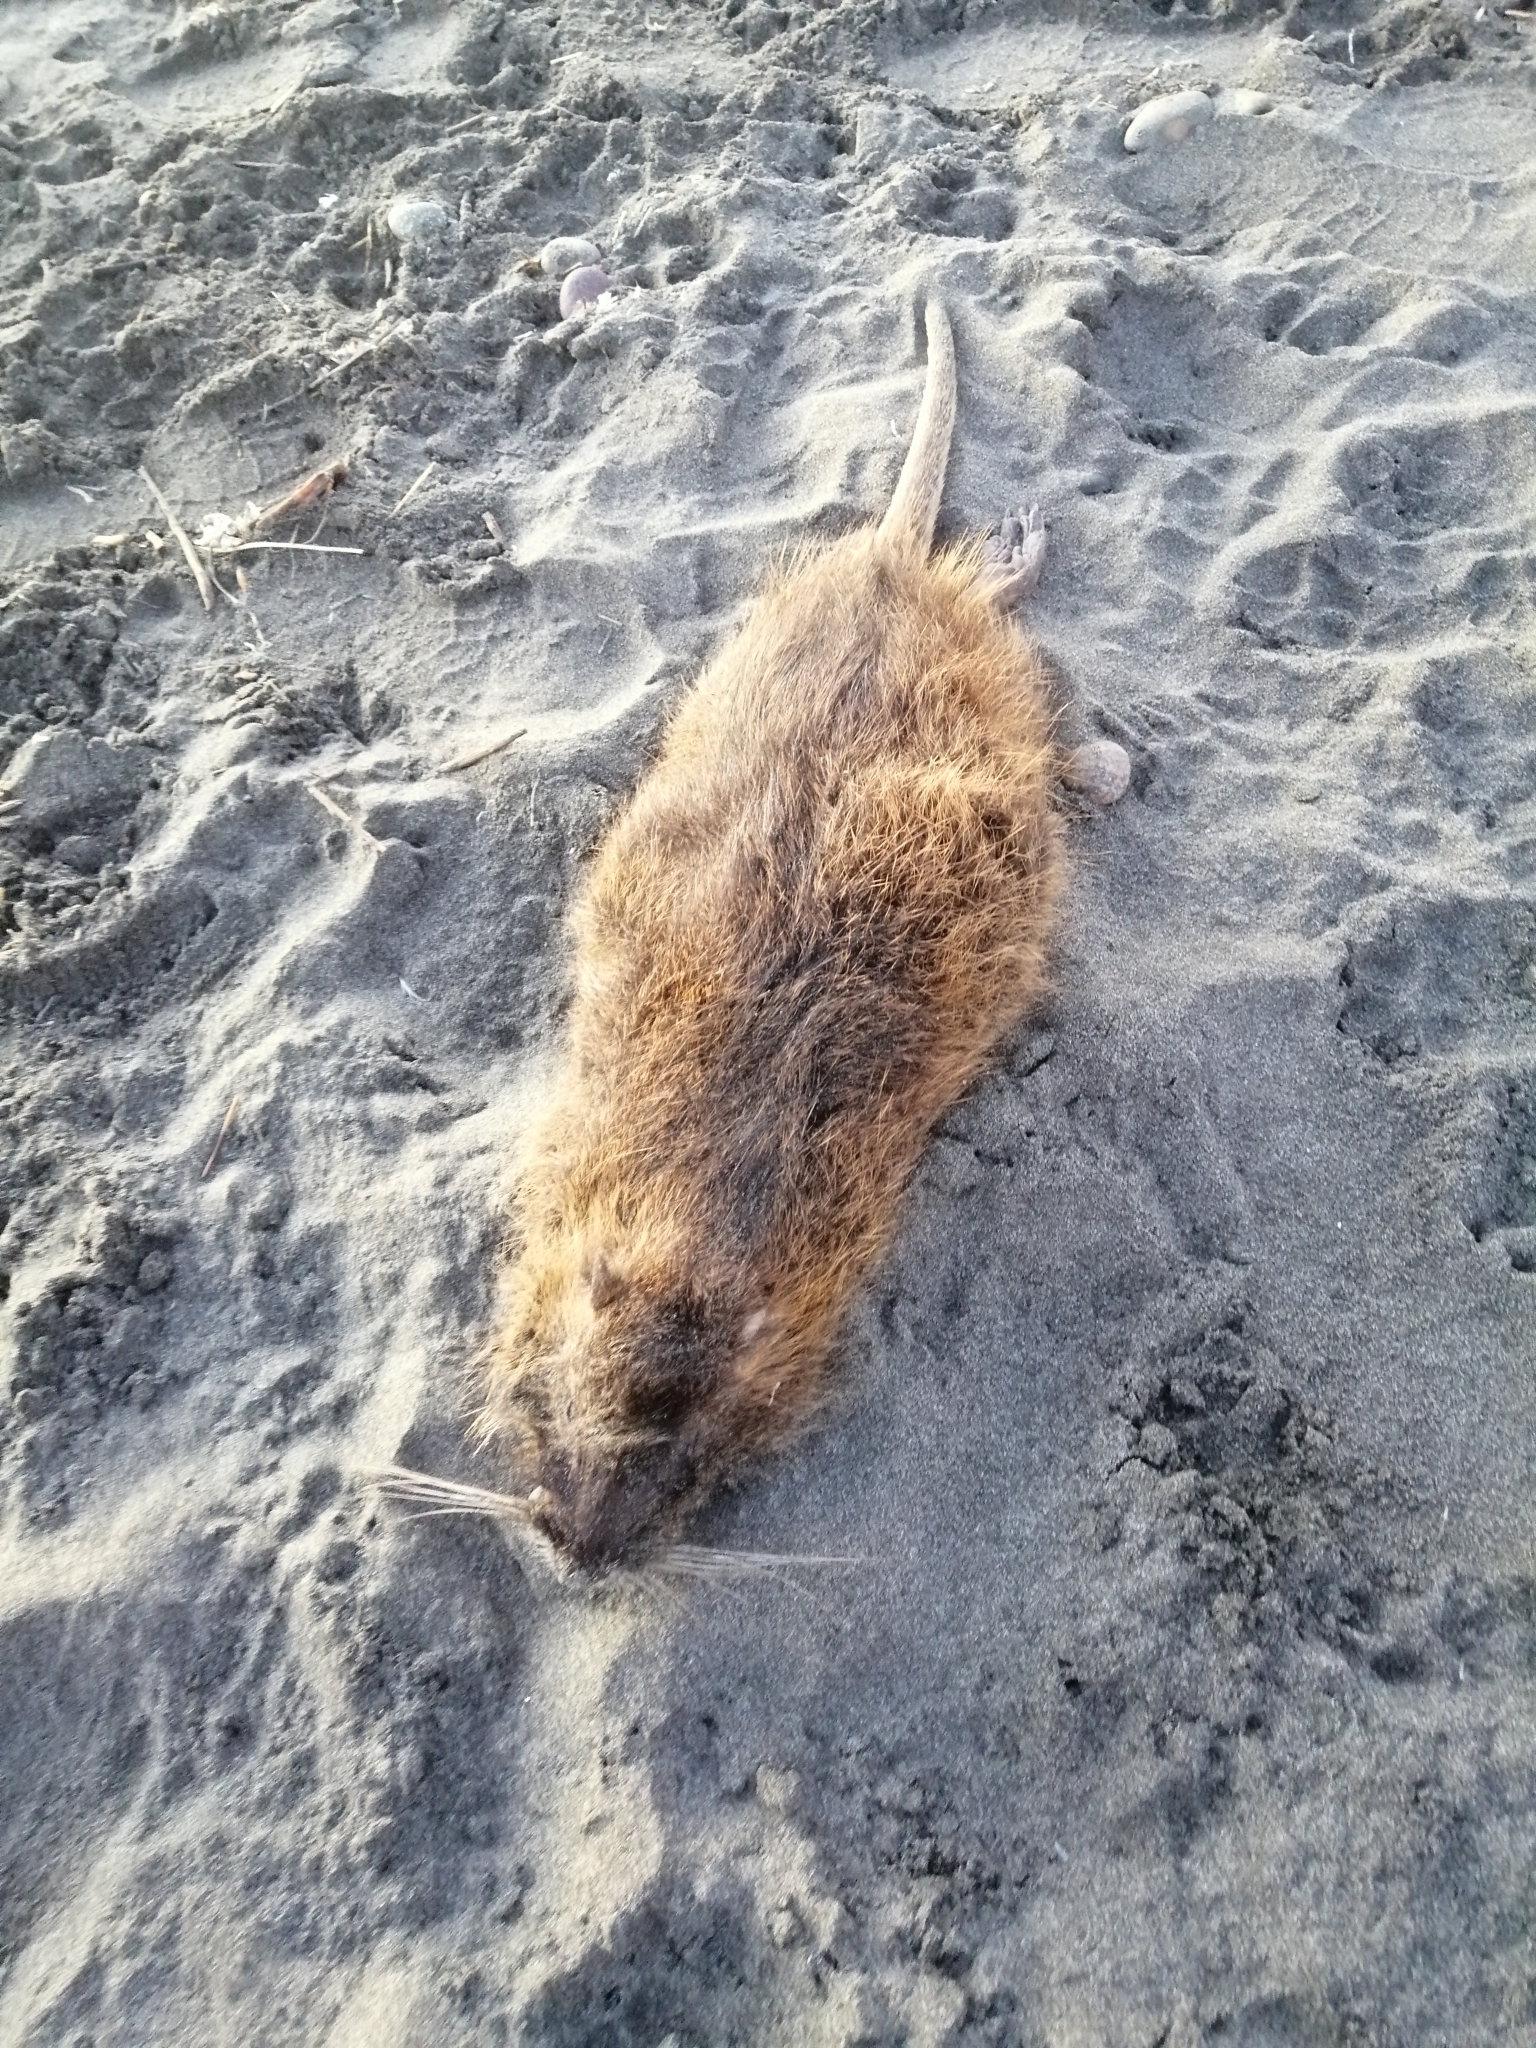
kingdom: Animalia
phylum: Chordata
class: Mammalia
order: Rodentia
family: Myocastoridae
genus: Myocastor
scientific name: Myocastor coypus
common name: Coypu
